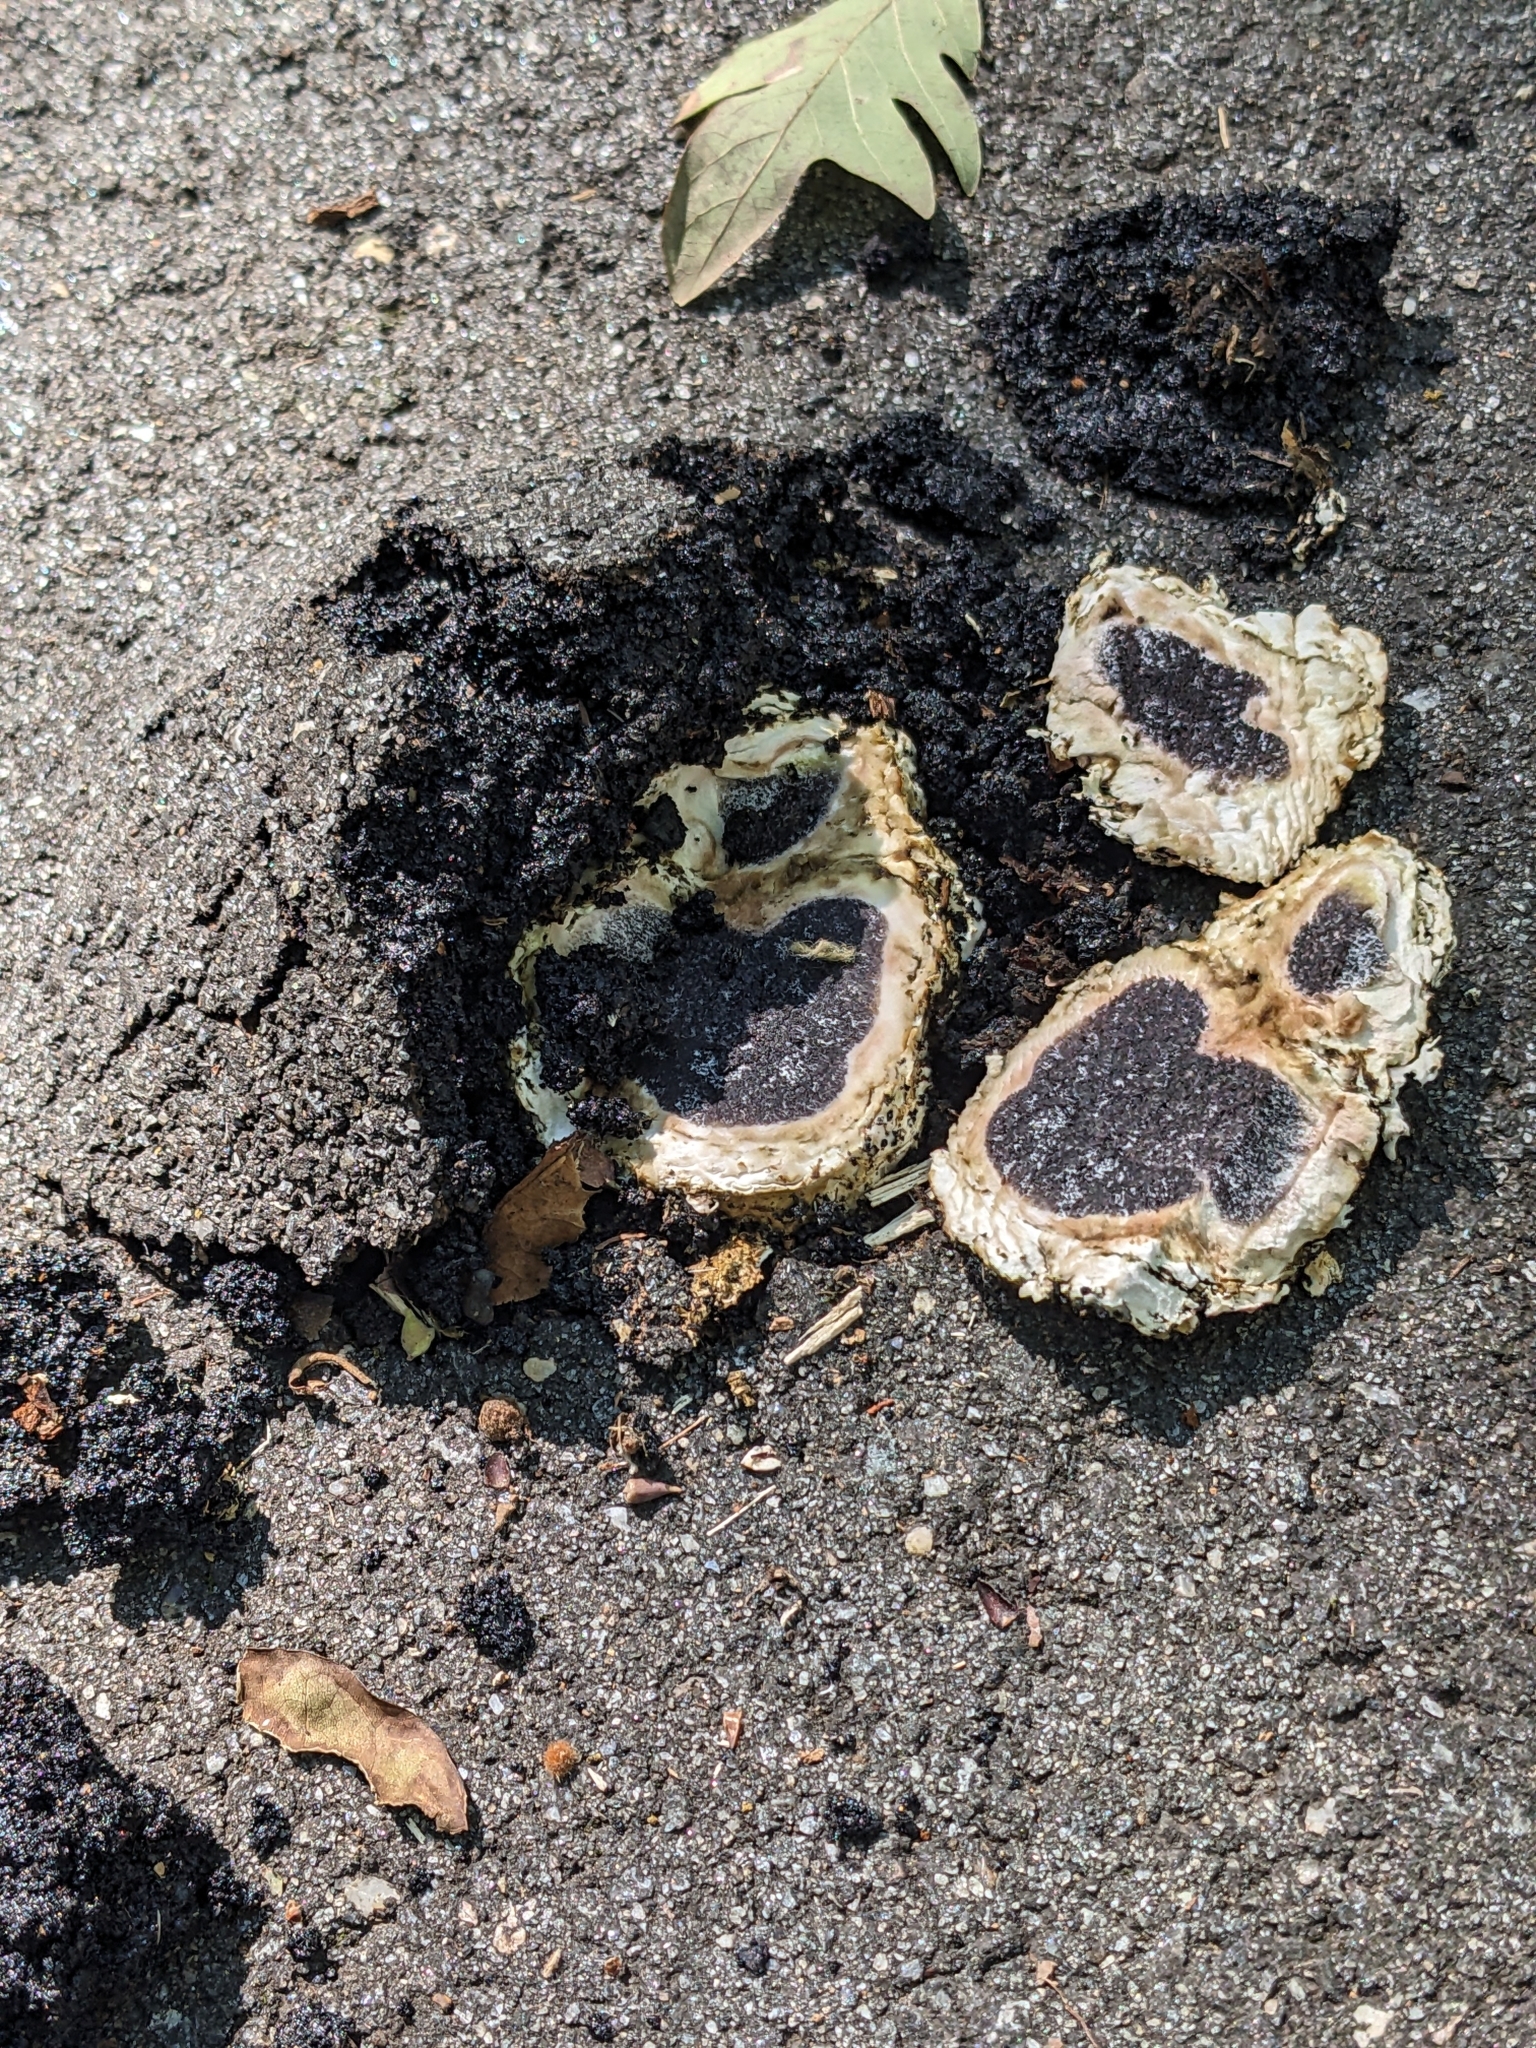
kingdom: Fungi
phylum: Basidiomycota
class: Agaricomycetes
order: Boletales
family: Sclerodermataceae
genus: Scleroderma
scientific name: Scleroderma polyrhizum
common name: Many-rooted earthball
